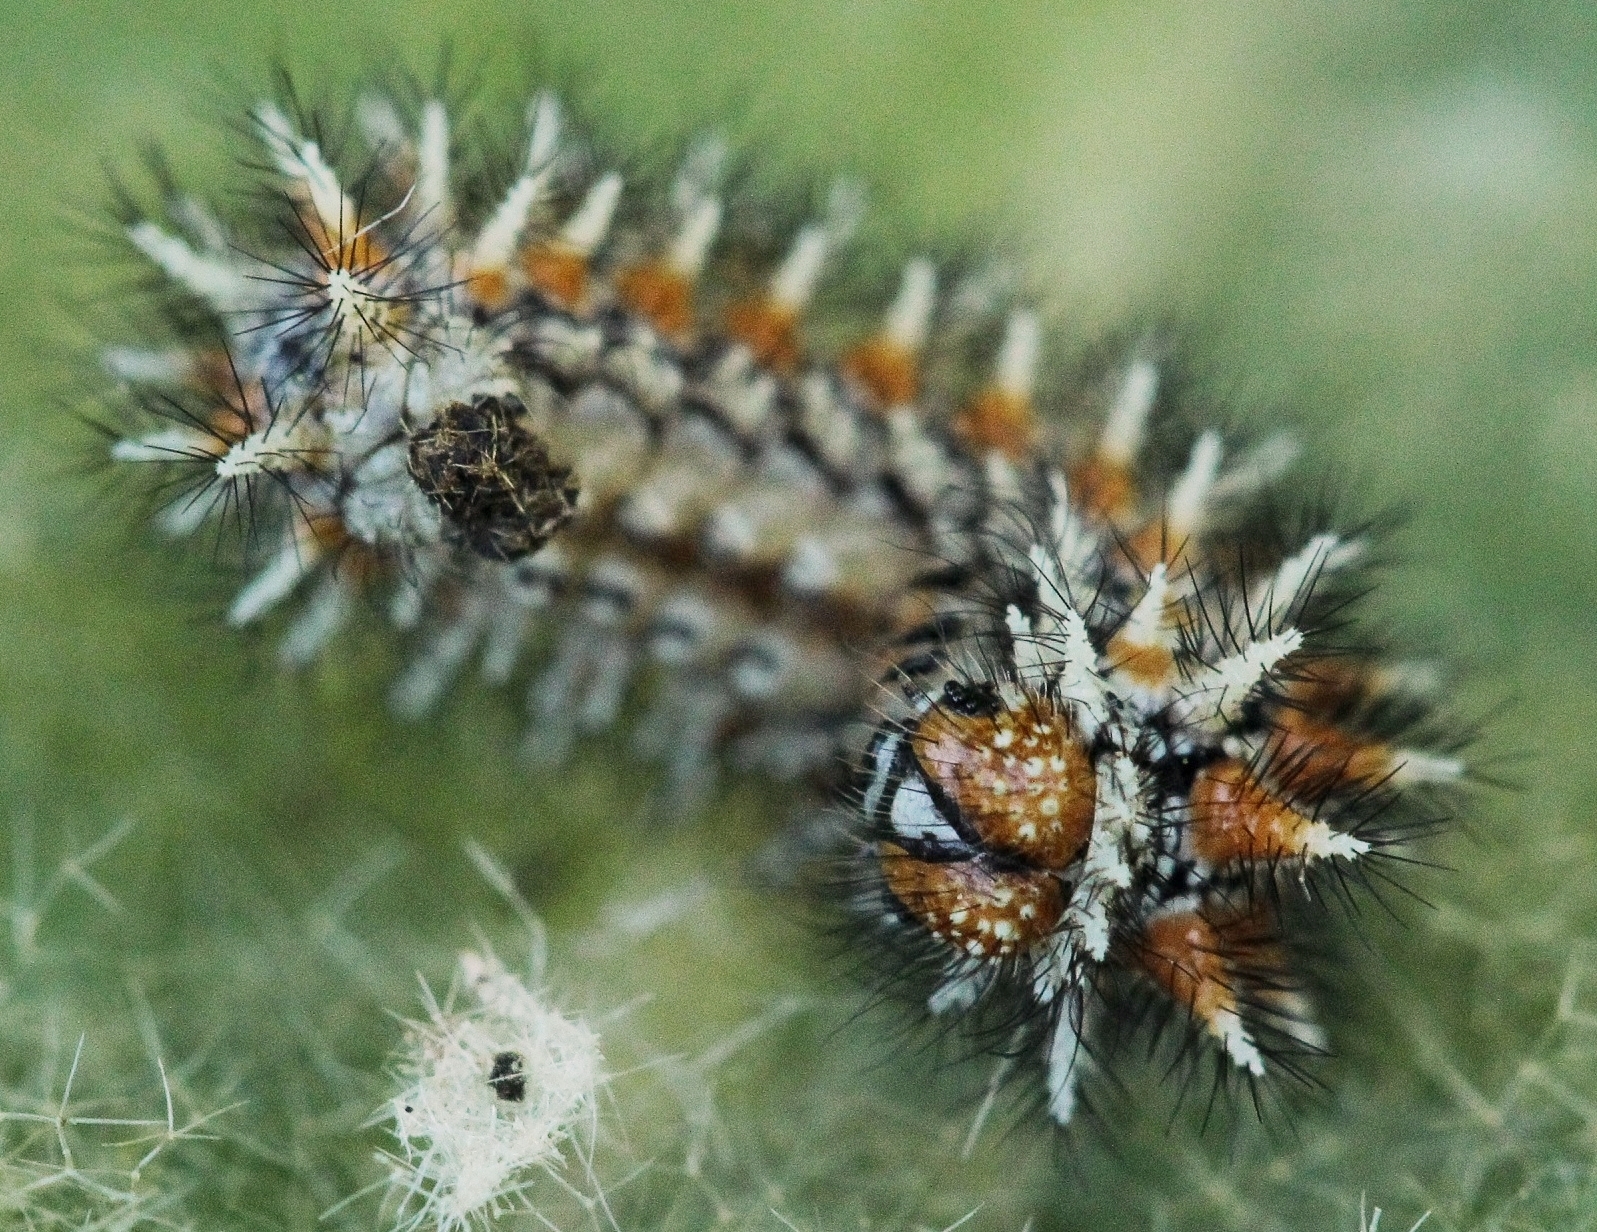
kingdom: Animalia
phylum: Arthropoda
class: Insecta
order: Lepidoptera
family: Nymphalidae
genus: Melitaea
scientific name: Melitaea didyma
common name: Spotted fritillary
